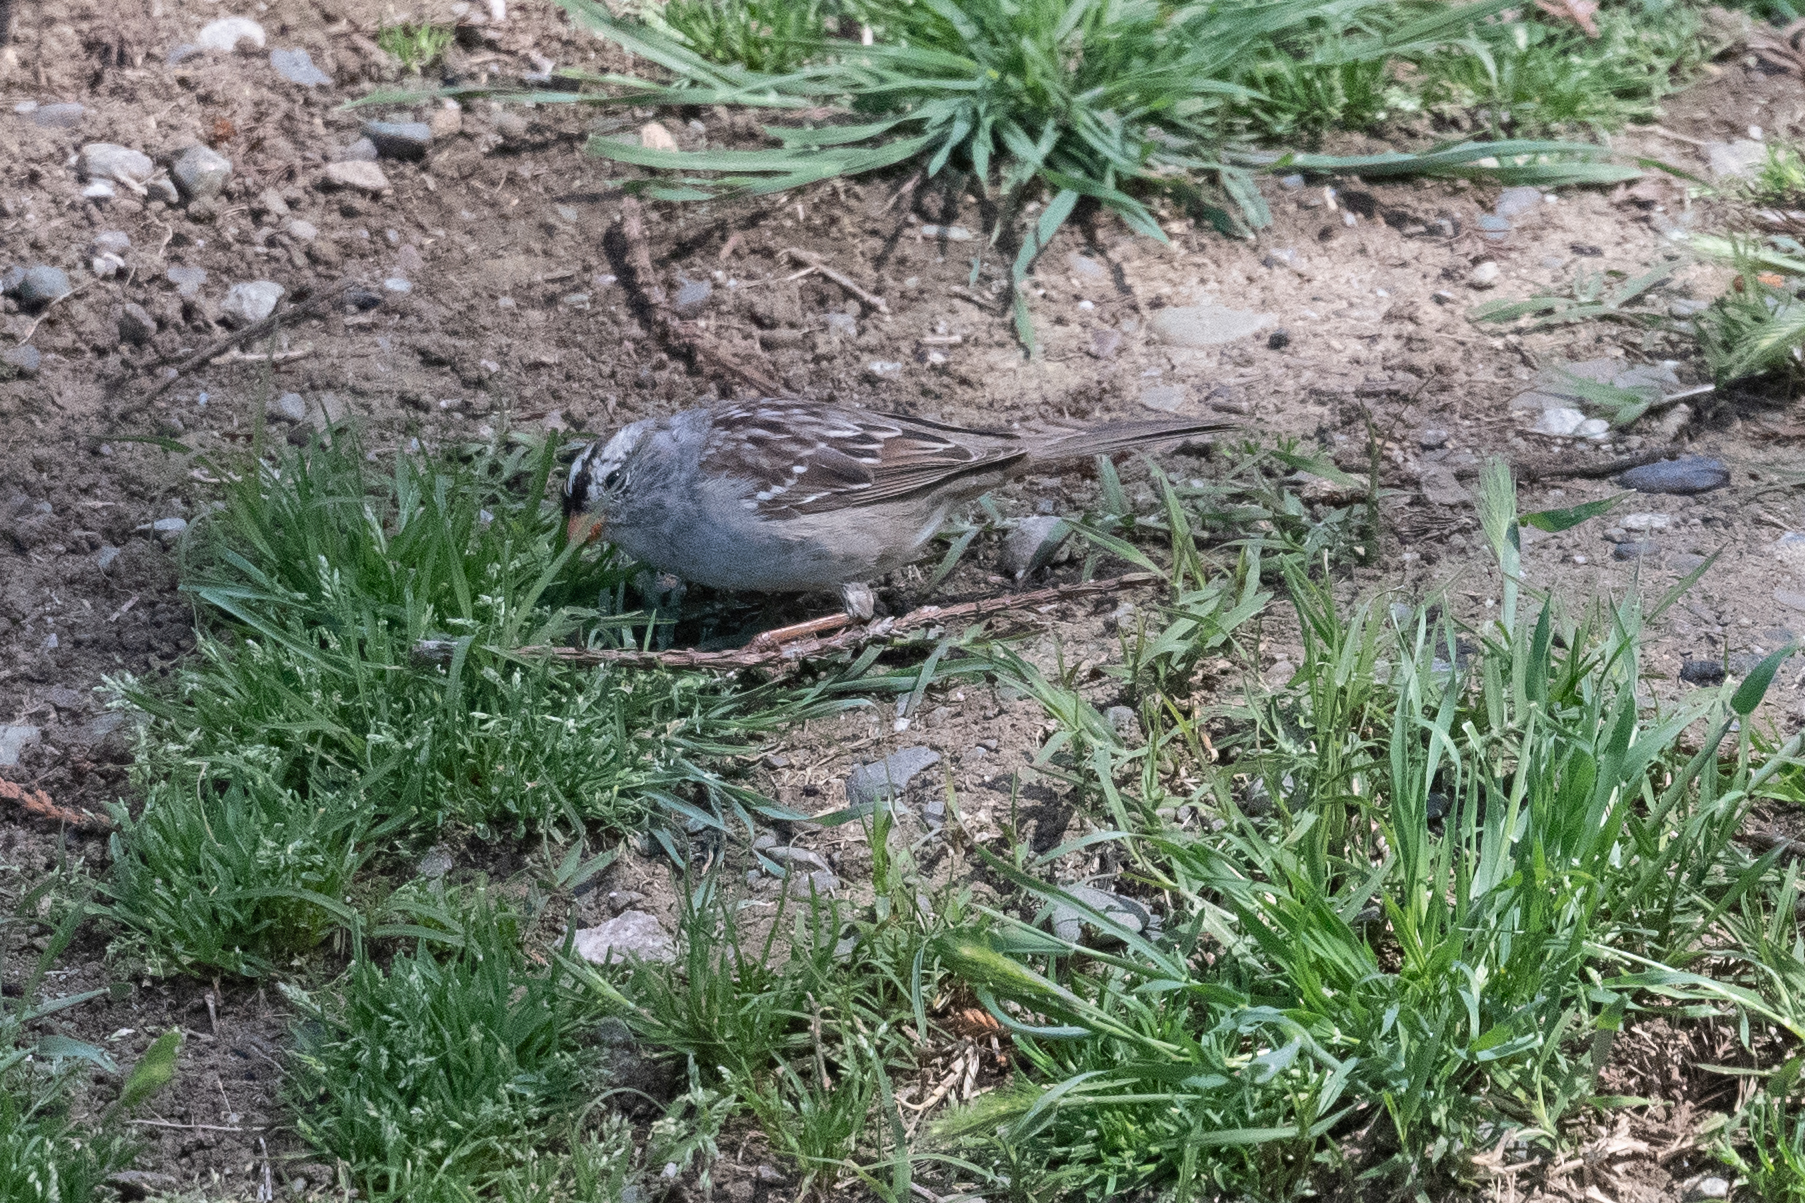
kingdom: Animalia
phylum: Chordata
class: Aves
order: Passeriformes
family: Passerellidae
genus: Zonotrichia
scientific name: Zonotrichia leucophrys
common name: White-crowned sparrow
